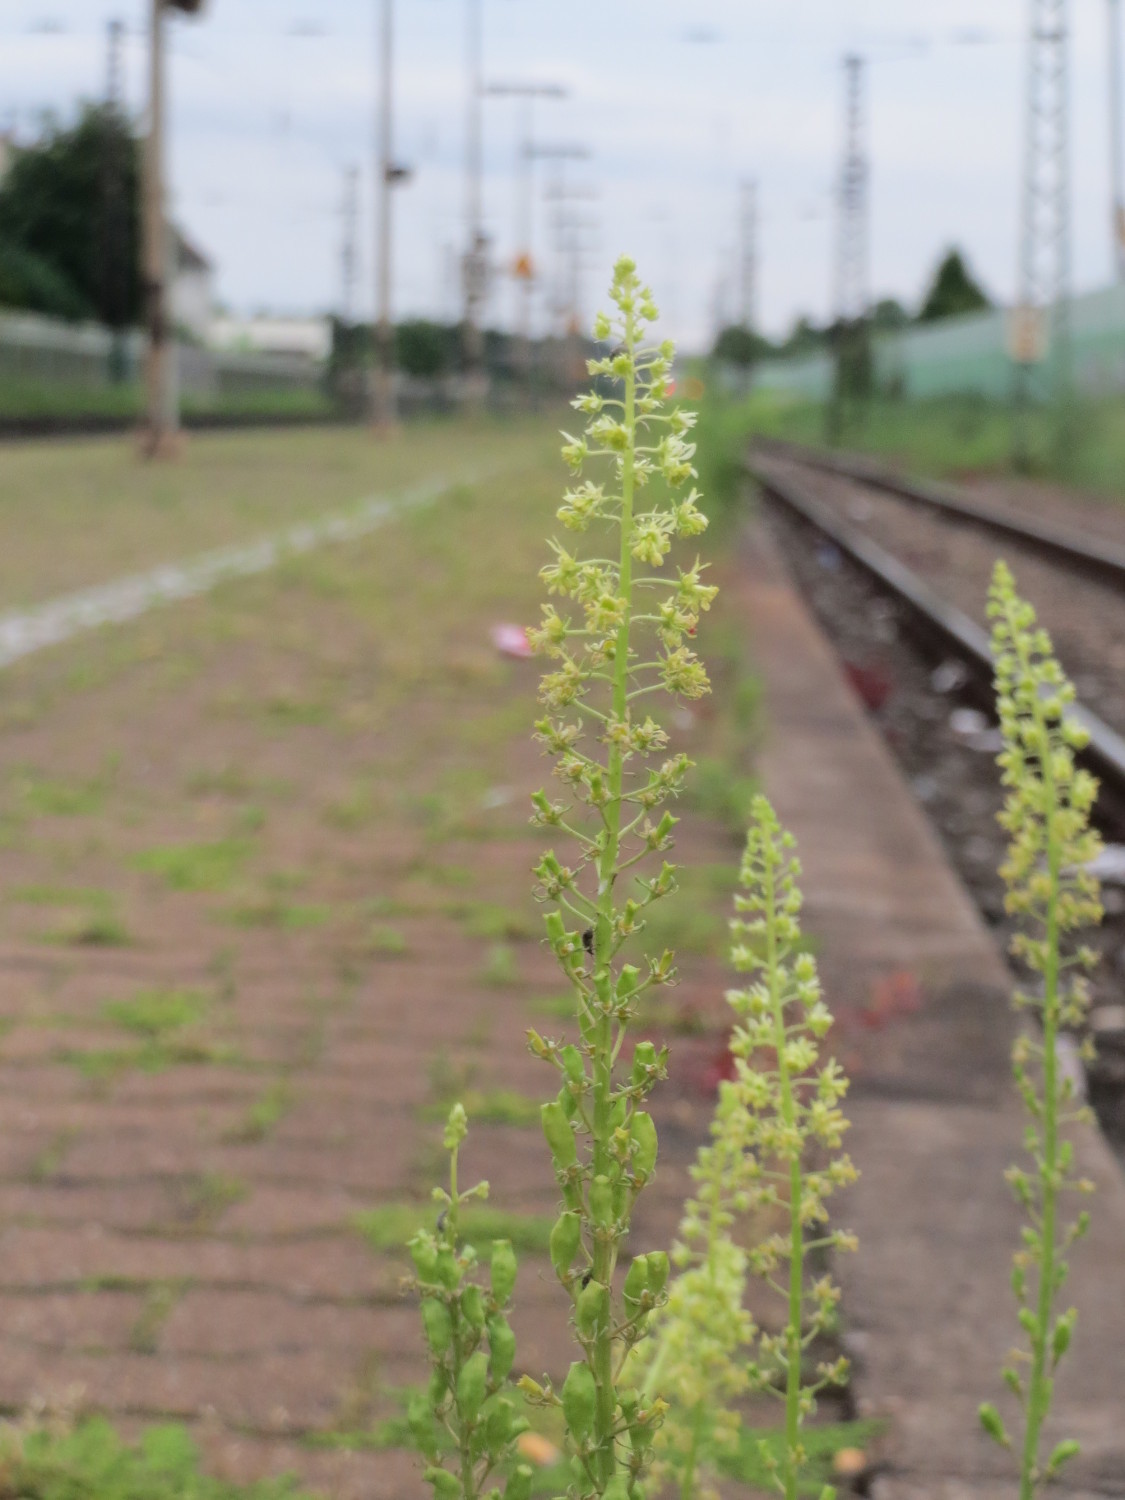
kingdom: Plantae
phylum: Tracheophyta
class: Magnoliopsida
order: Brassicales
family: Resedaceae
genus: Reseda
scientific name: Reseda lutea
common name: Wild mignonette
